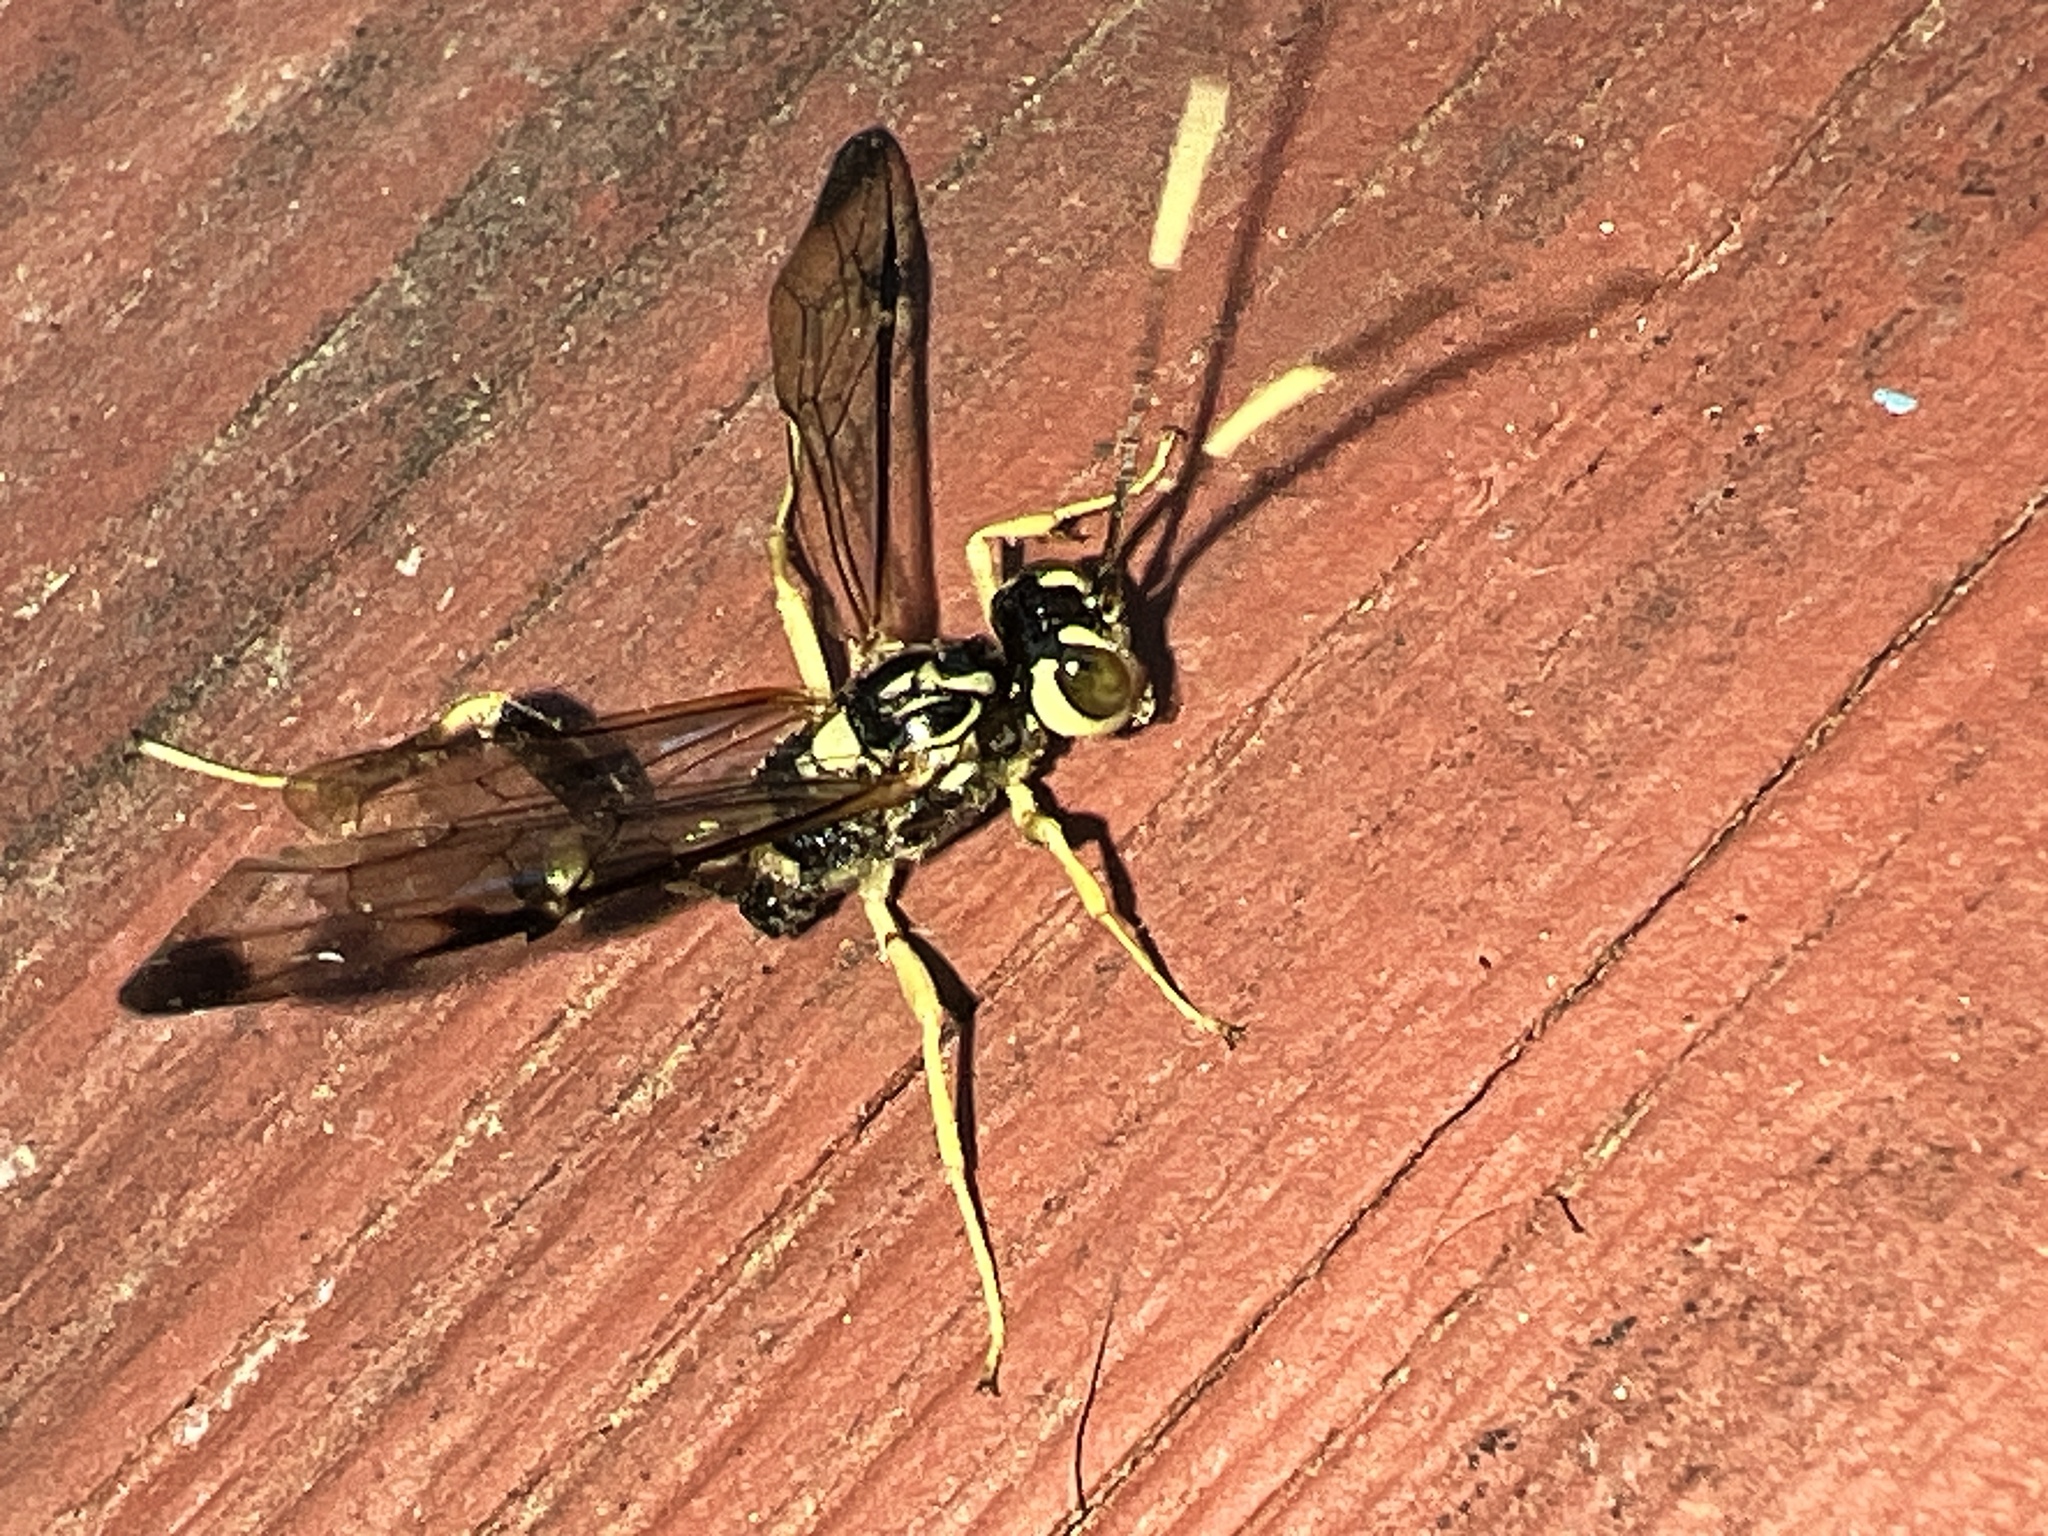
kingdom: Animalia
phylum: Arthropoda
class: Insecta
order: Hymenoptera
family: Ichneumonidae
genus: Spilopteron
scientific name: Spilopteron formosum
